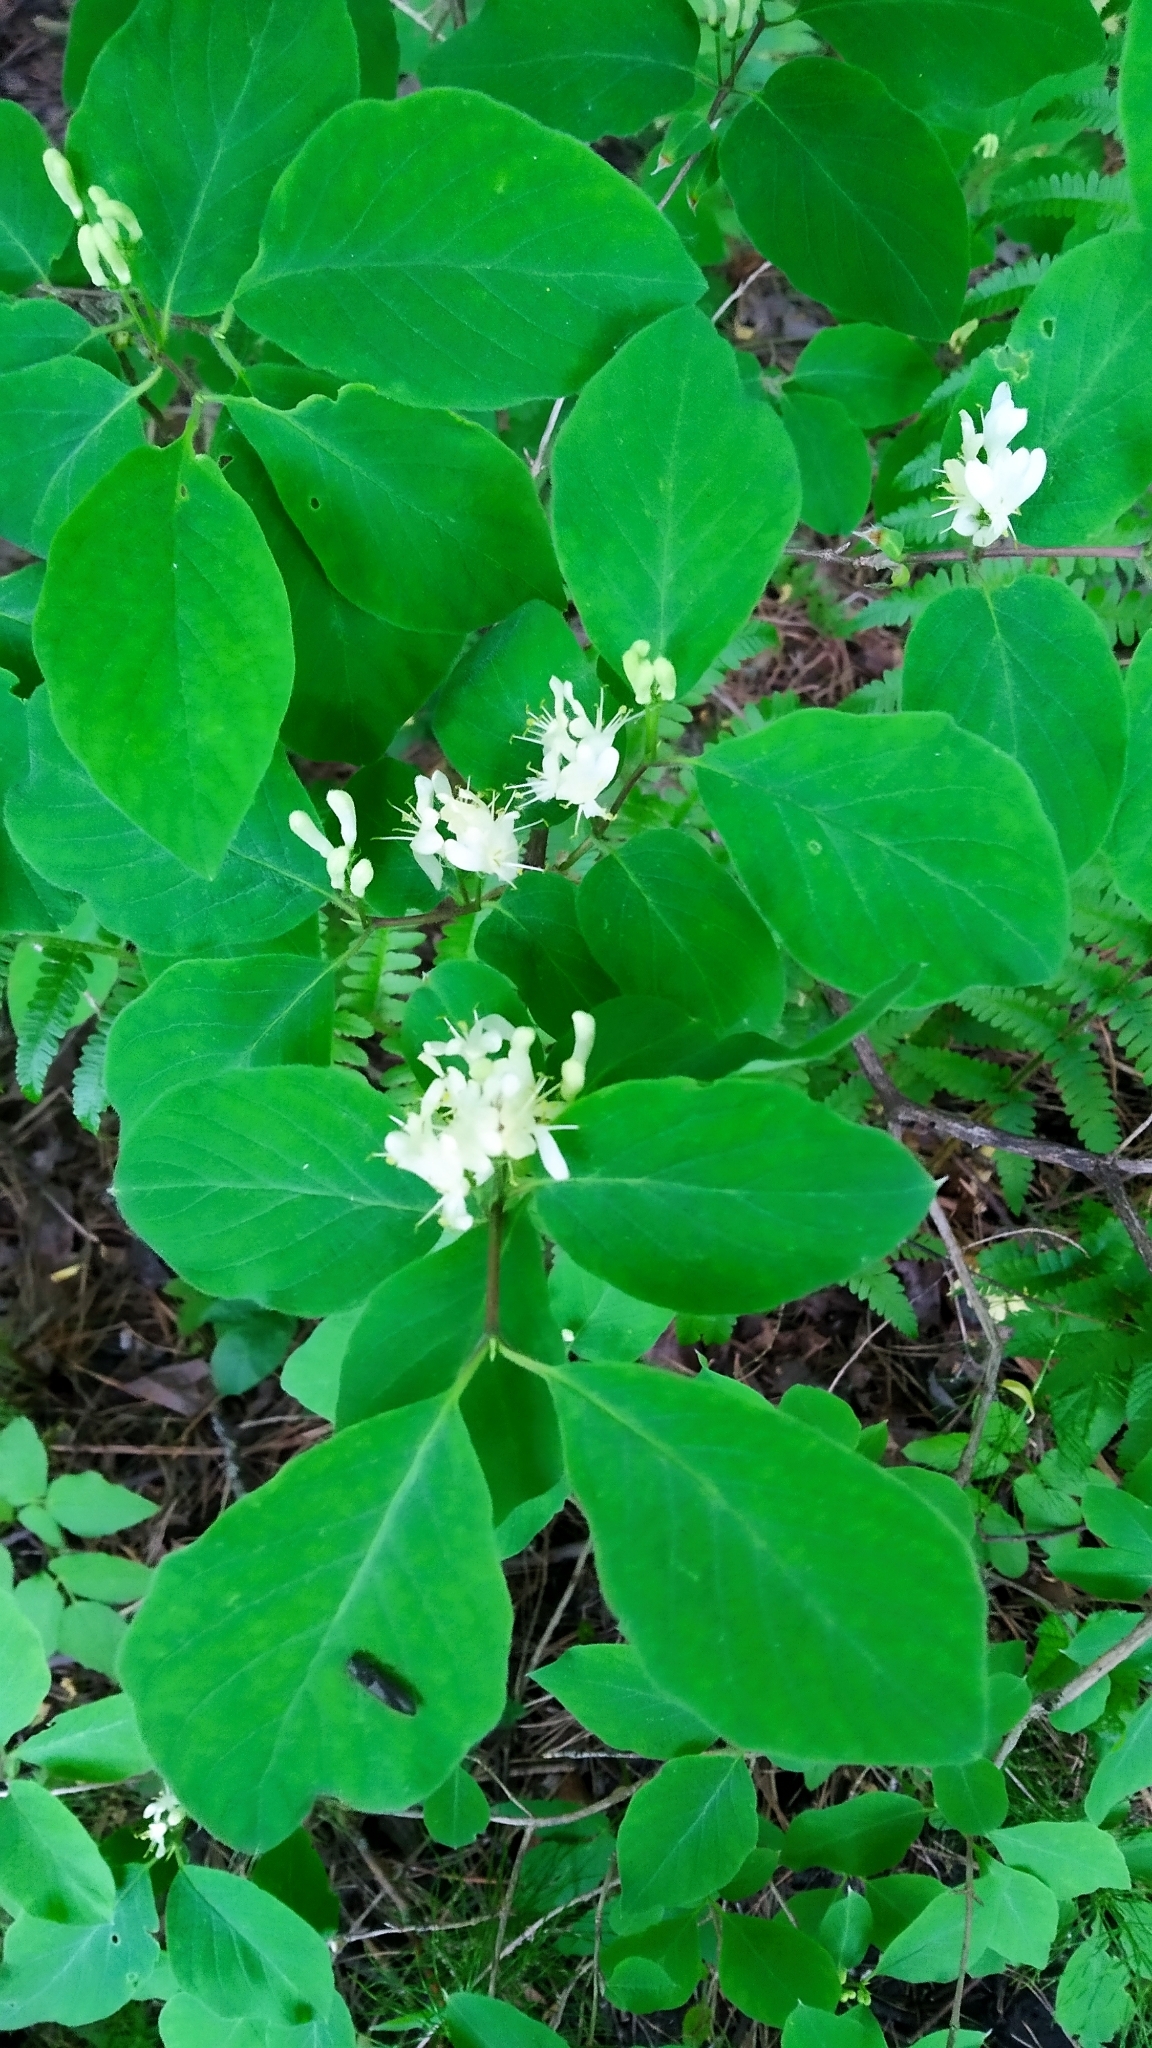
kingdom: Plantae
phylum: Tracheophyta
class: Magnoliopsida
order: Dipsacales
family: Caprifoliaceae
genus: Lonicera
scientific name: Lonicera xylosteum
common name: Fly honeysuckle
